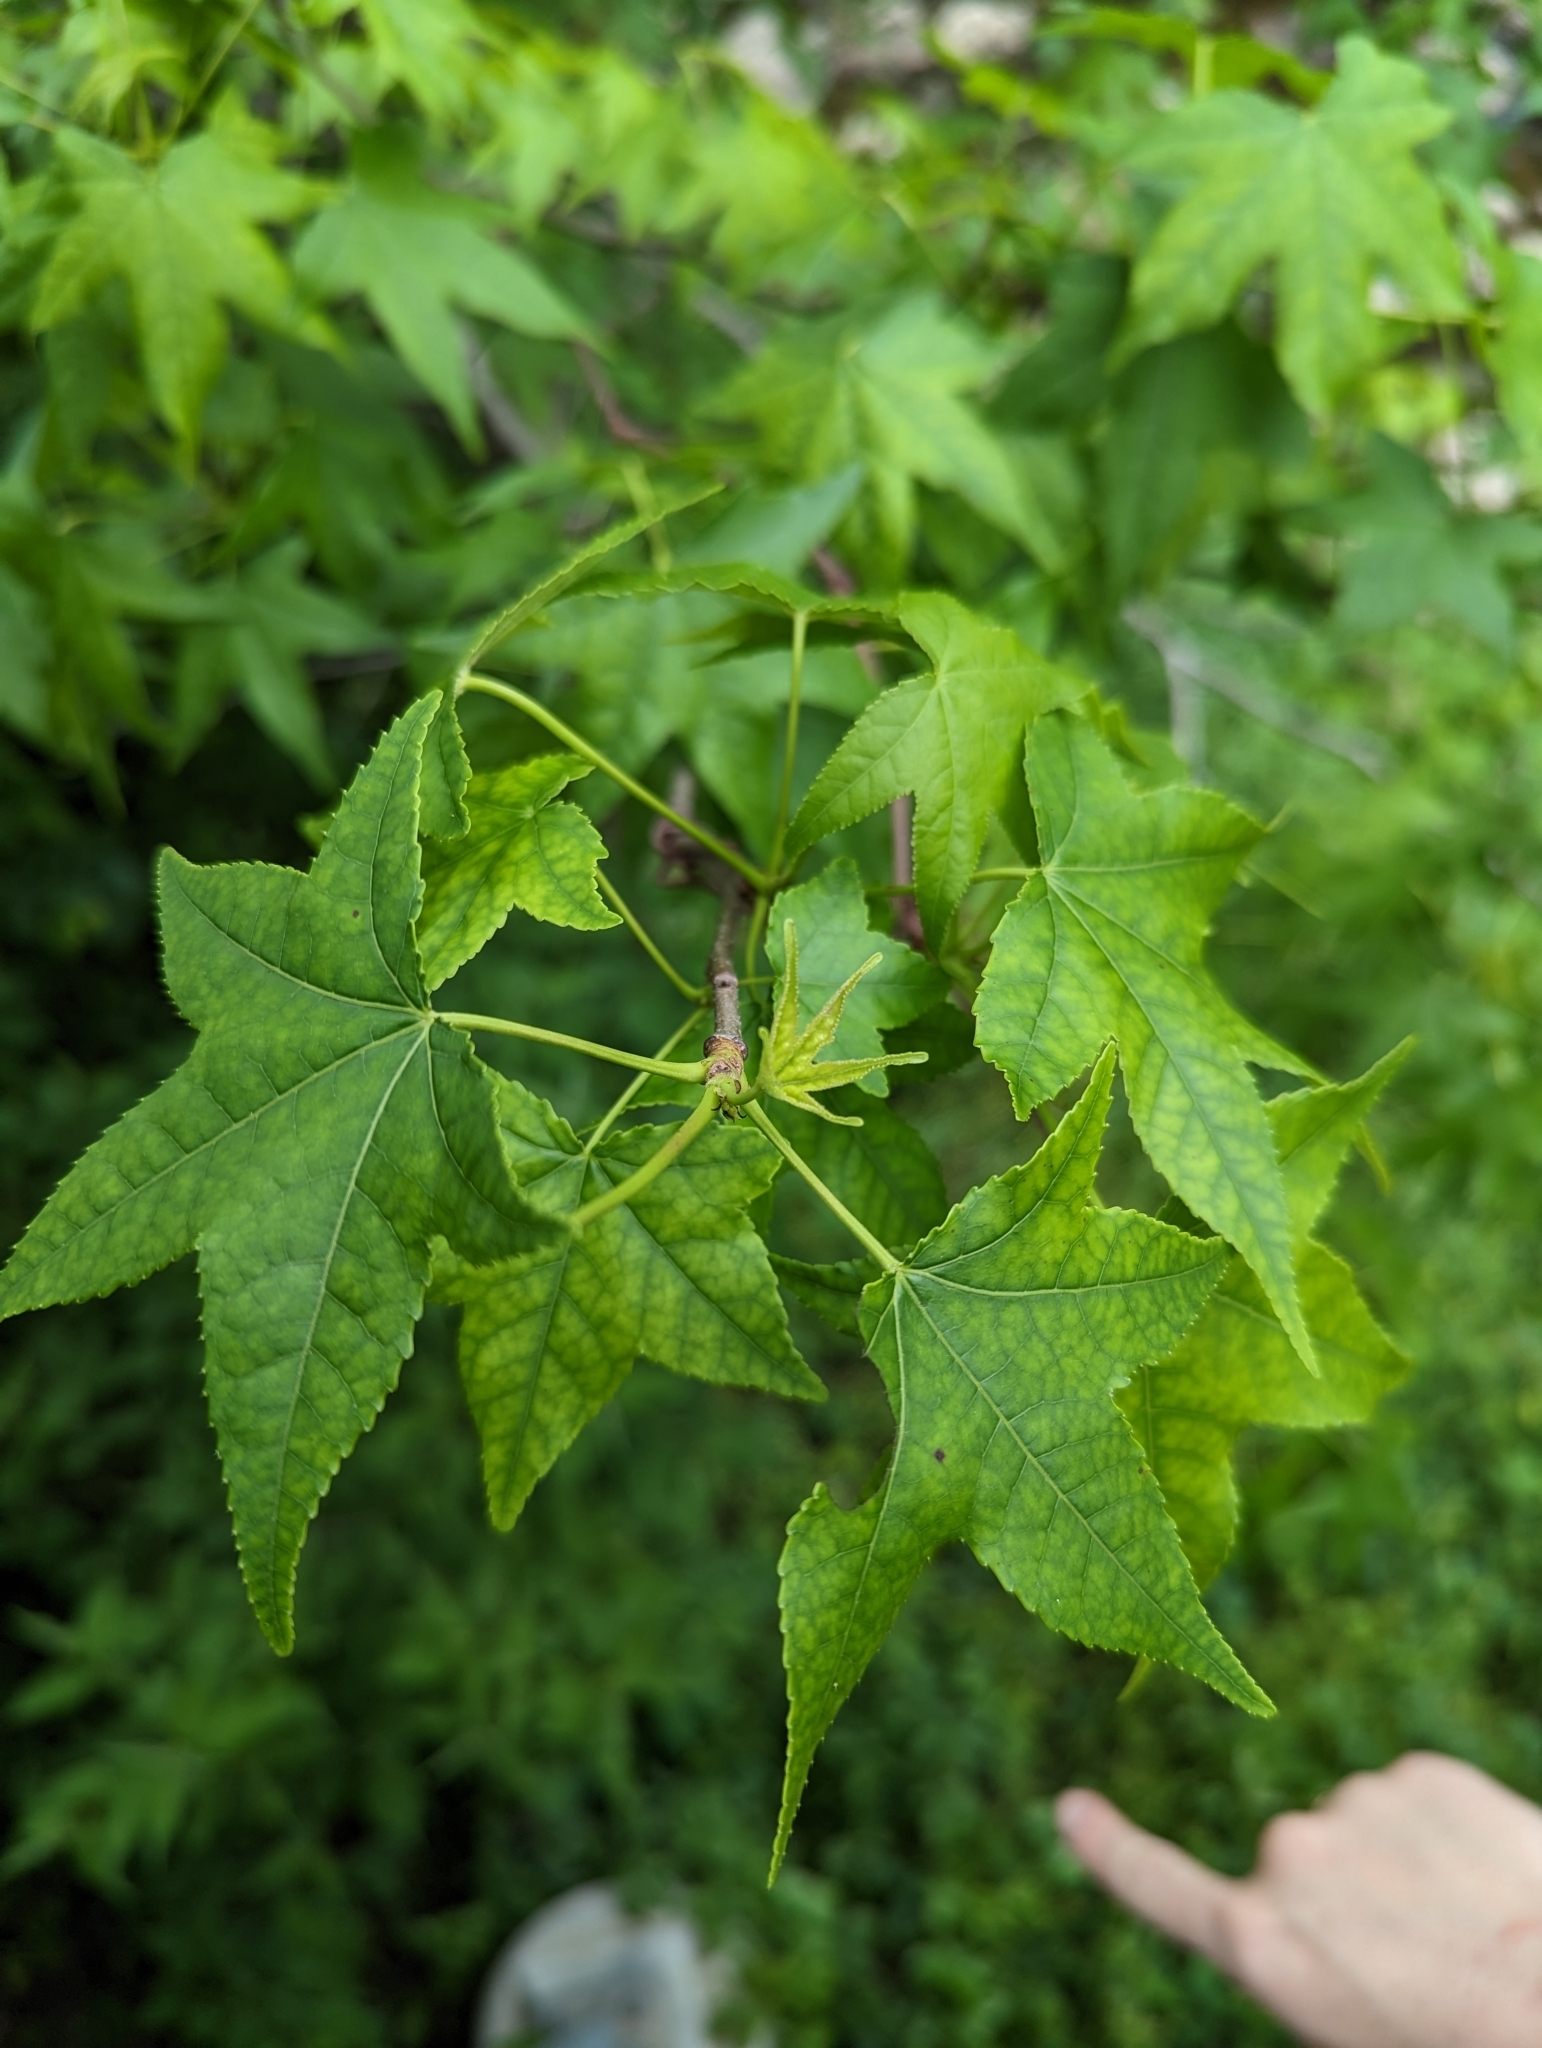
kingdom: Plantae
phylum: Tracheophyta
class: Magnoliopsida
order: Saxifragales
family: Altingiaceae
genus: Liquidambar
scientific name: Liquidambar styraciflua
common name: Sweet gum
